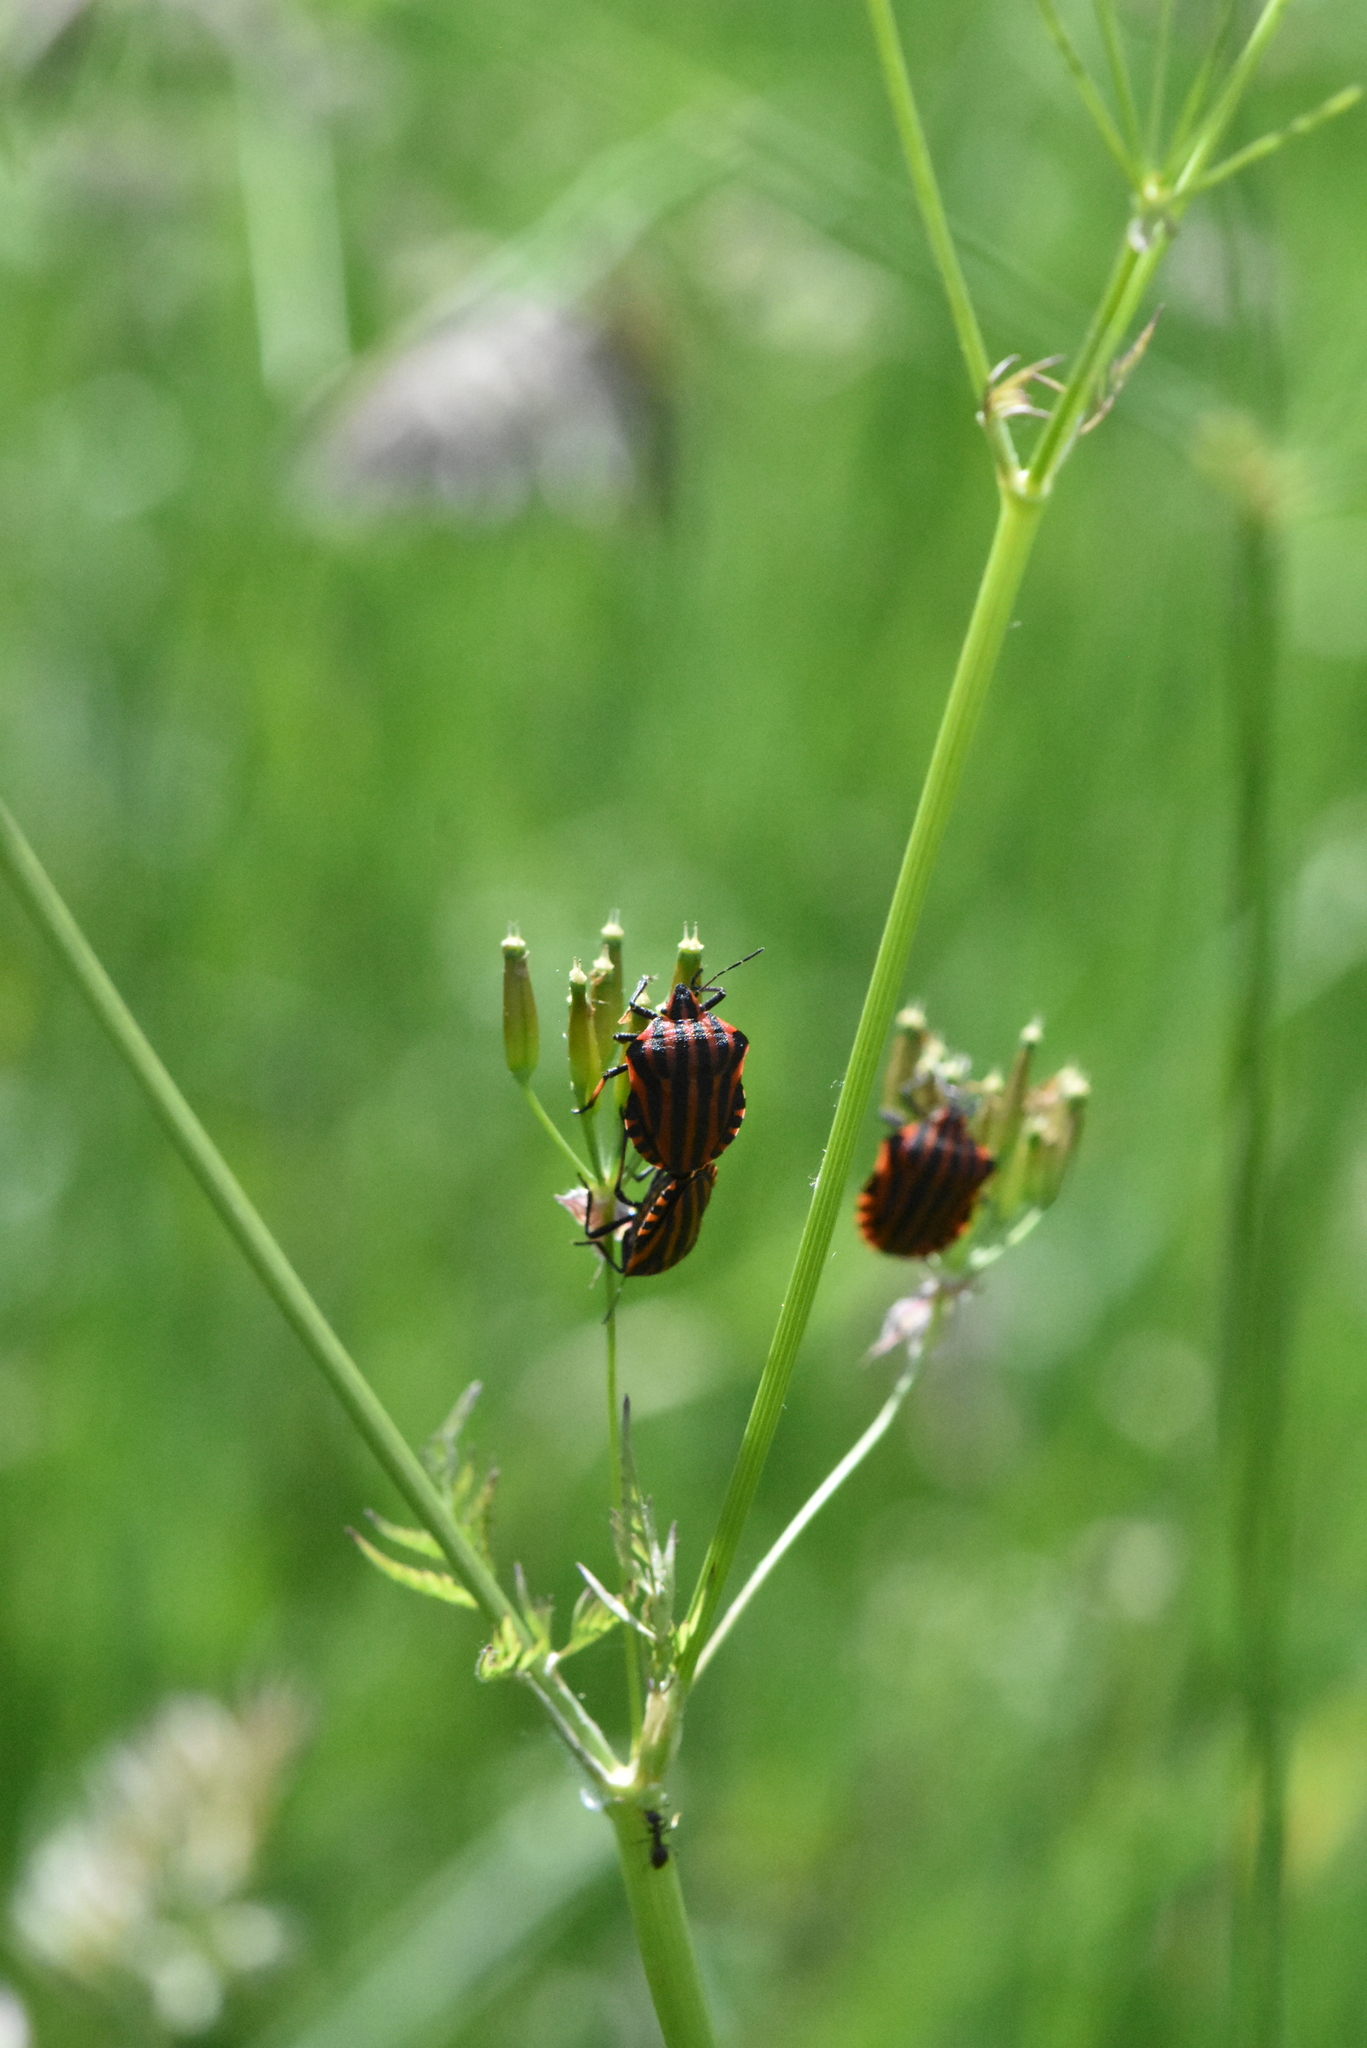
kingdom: Animalia
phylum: Arthropoda
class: Insecta
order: Hemiptera
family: Pentatomidae
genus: Graphosoma
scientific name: Graphosoma italicum
